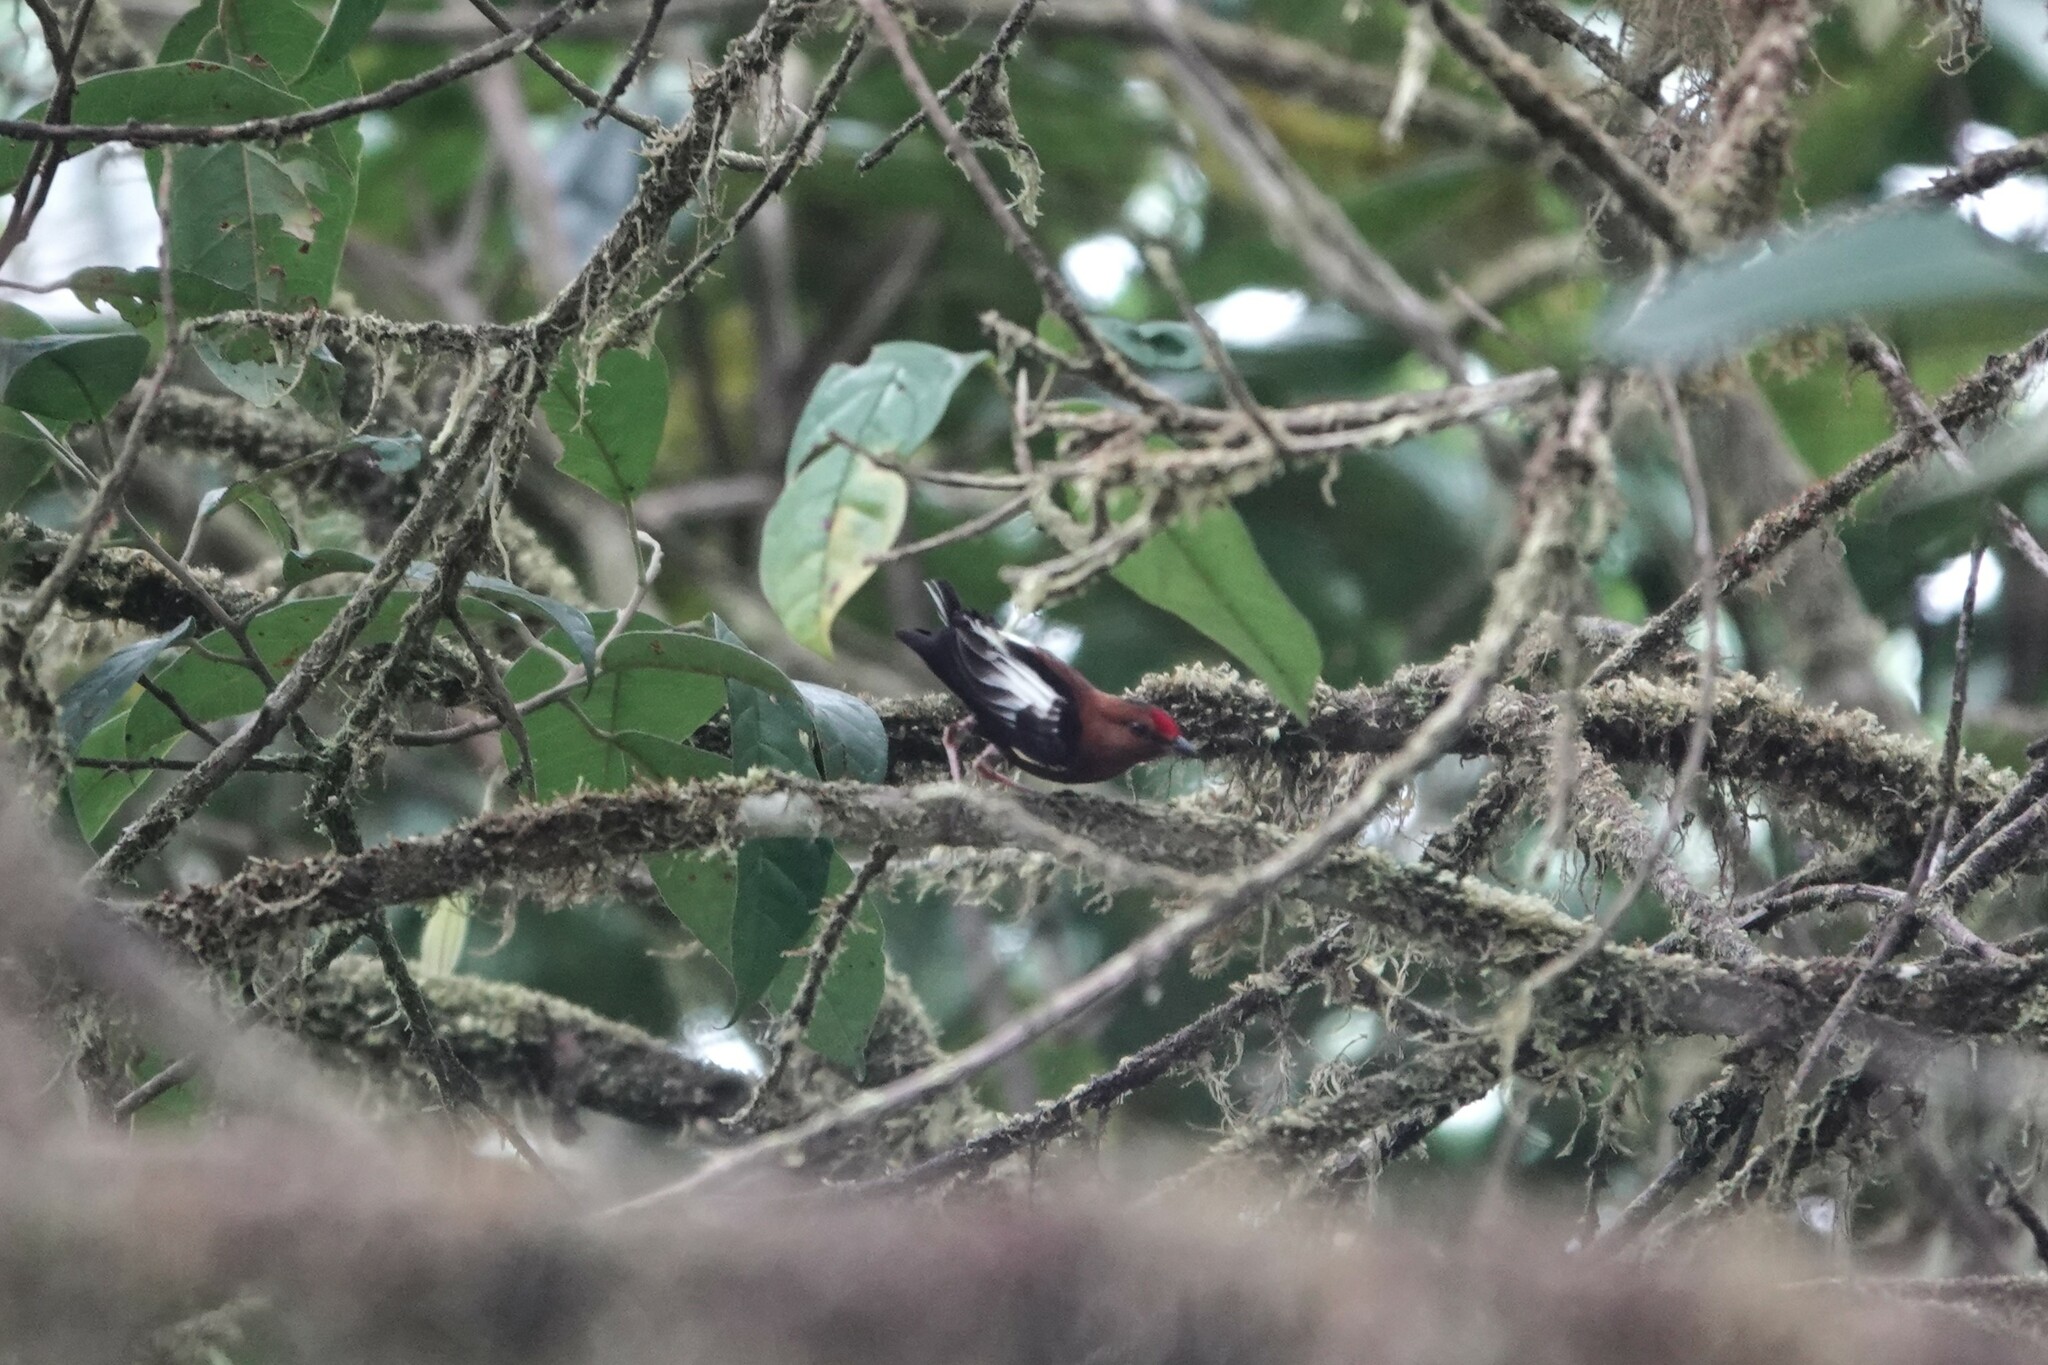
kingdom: Animalia
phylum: Chordata
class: Aves
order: Passeriformes
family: Pipridae
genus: Machaeropterus
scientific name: Machaeropterus deliciosus
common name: Club-winged manakin
